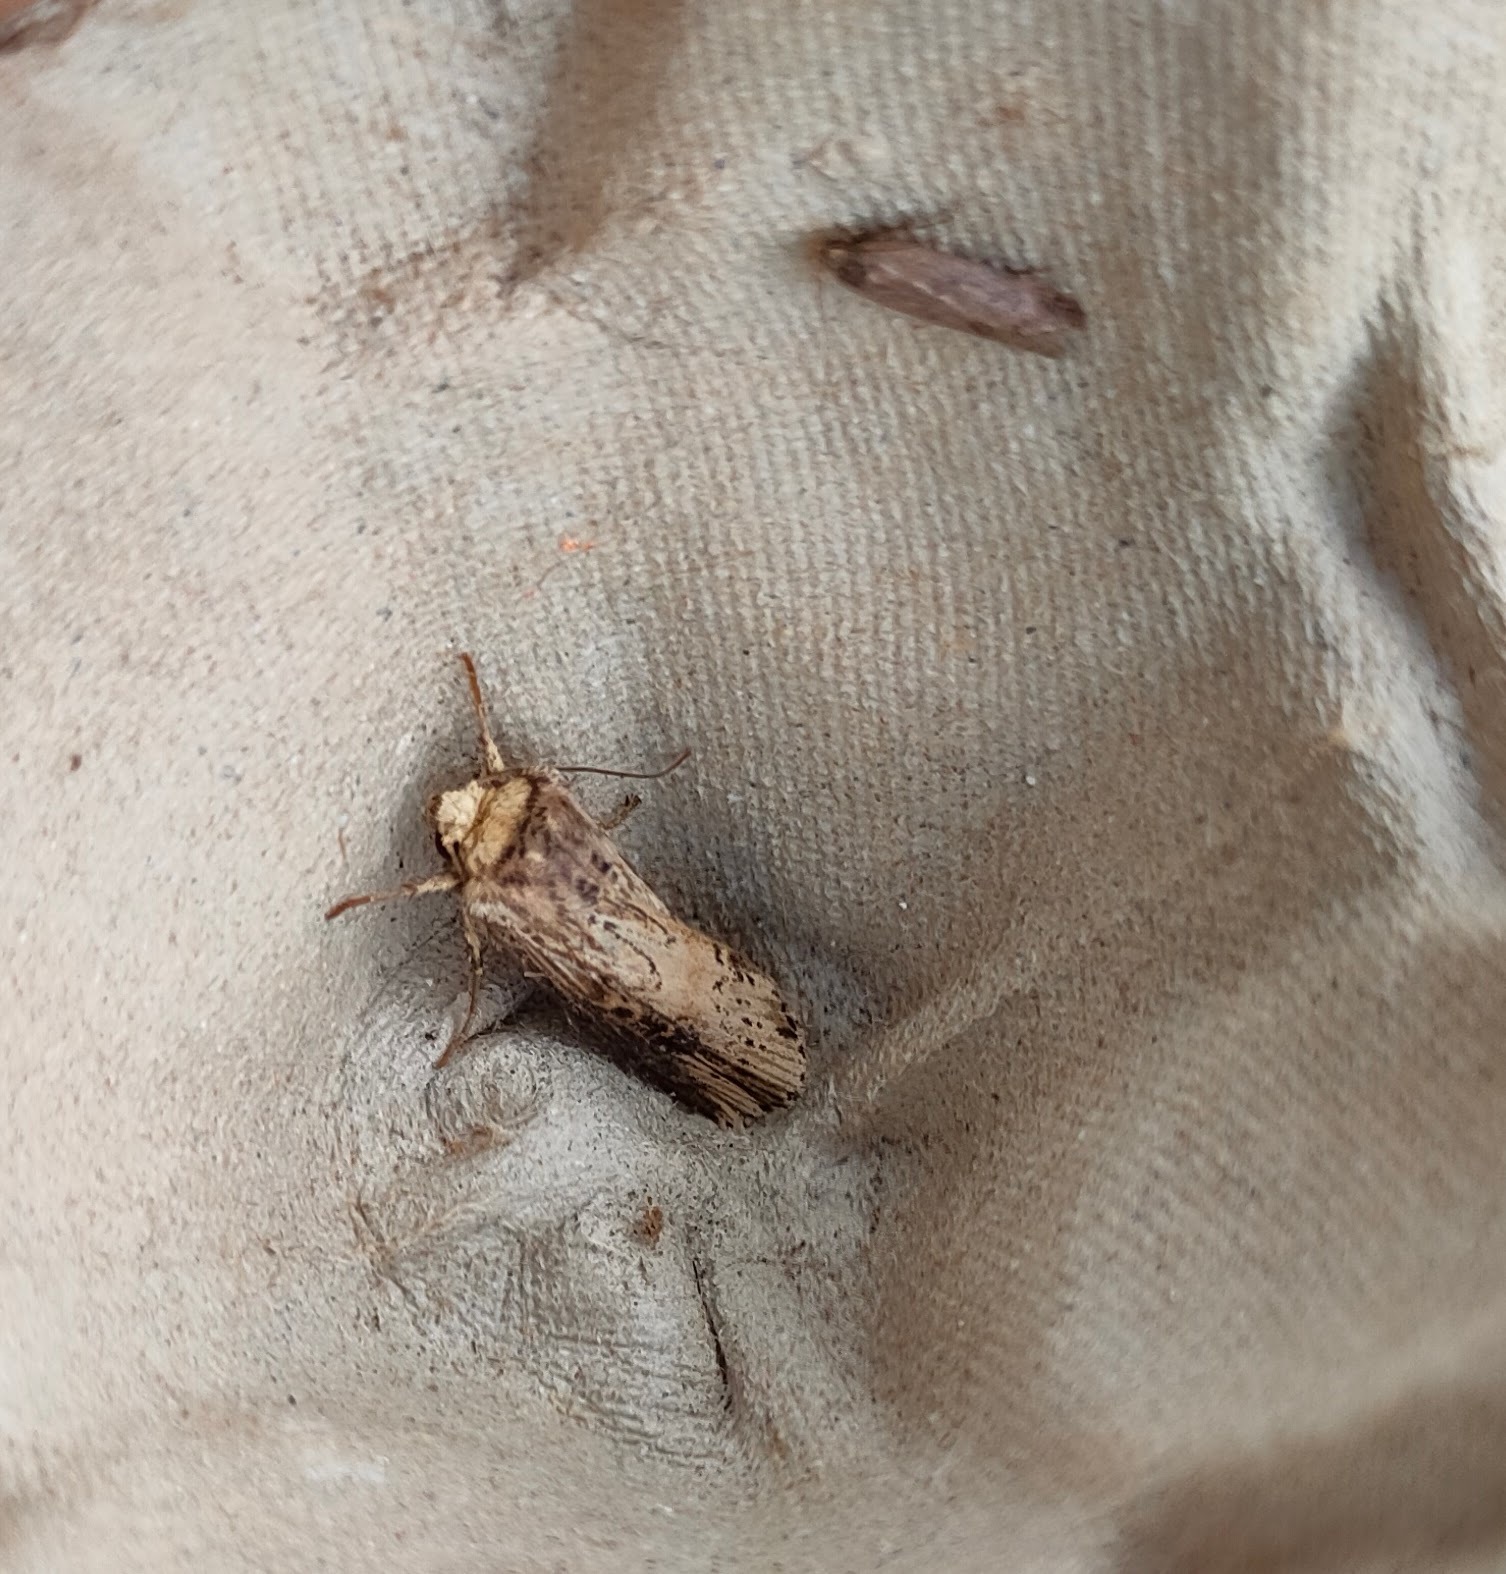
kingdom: Animalia
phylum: Arthropoda
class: Insecta
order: Lepidoptera
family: Noctuidae
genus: Axylia
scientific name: Axylia putris
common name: Flame
